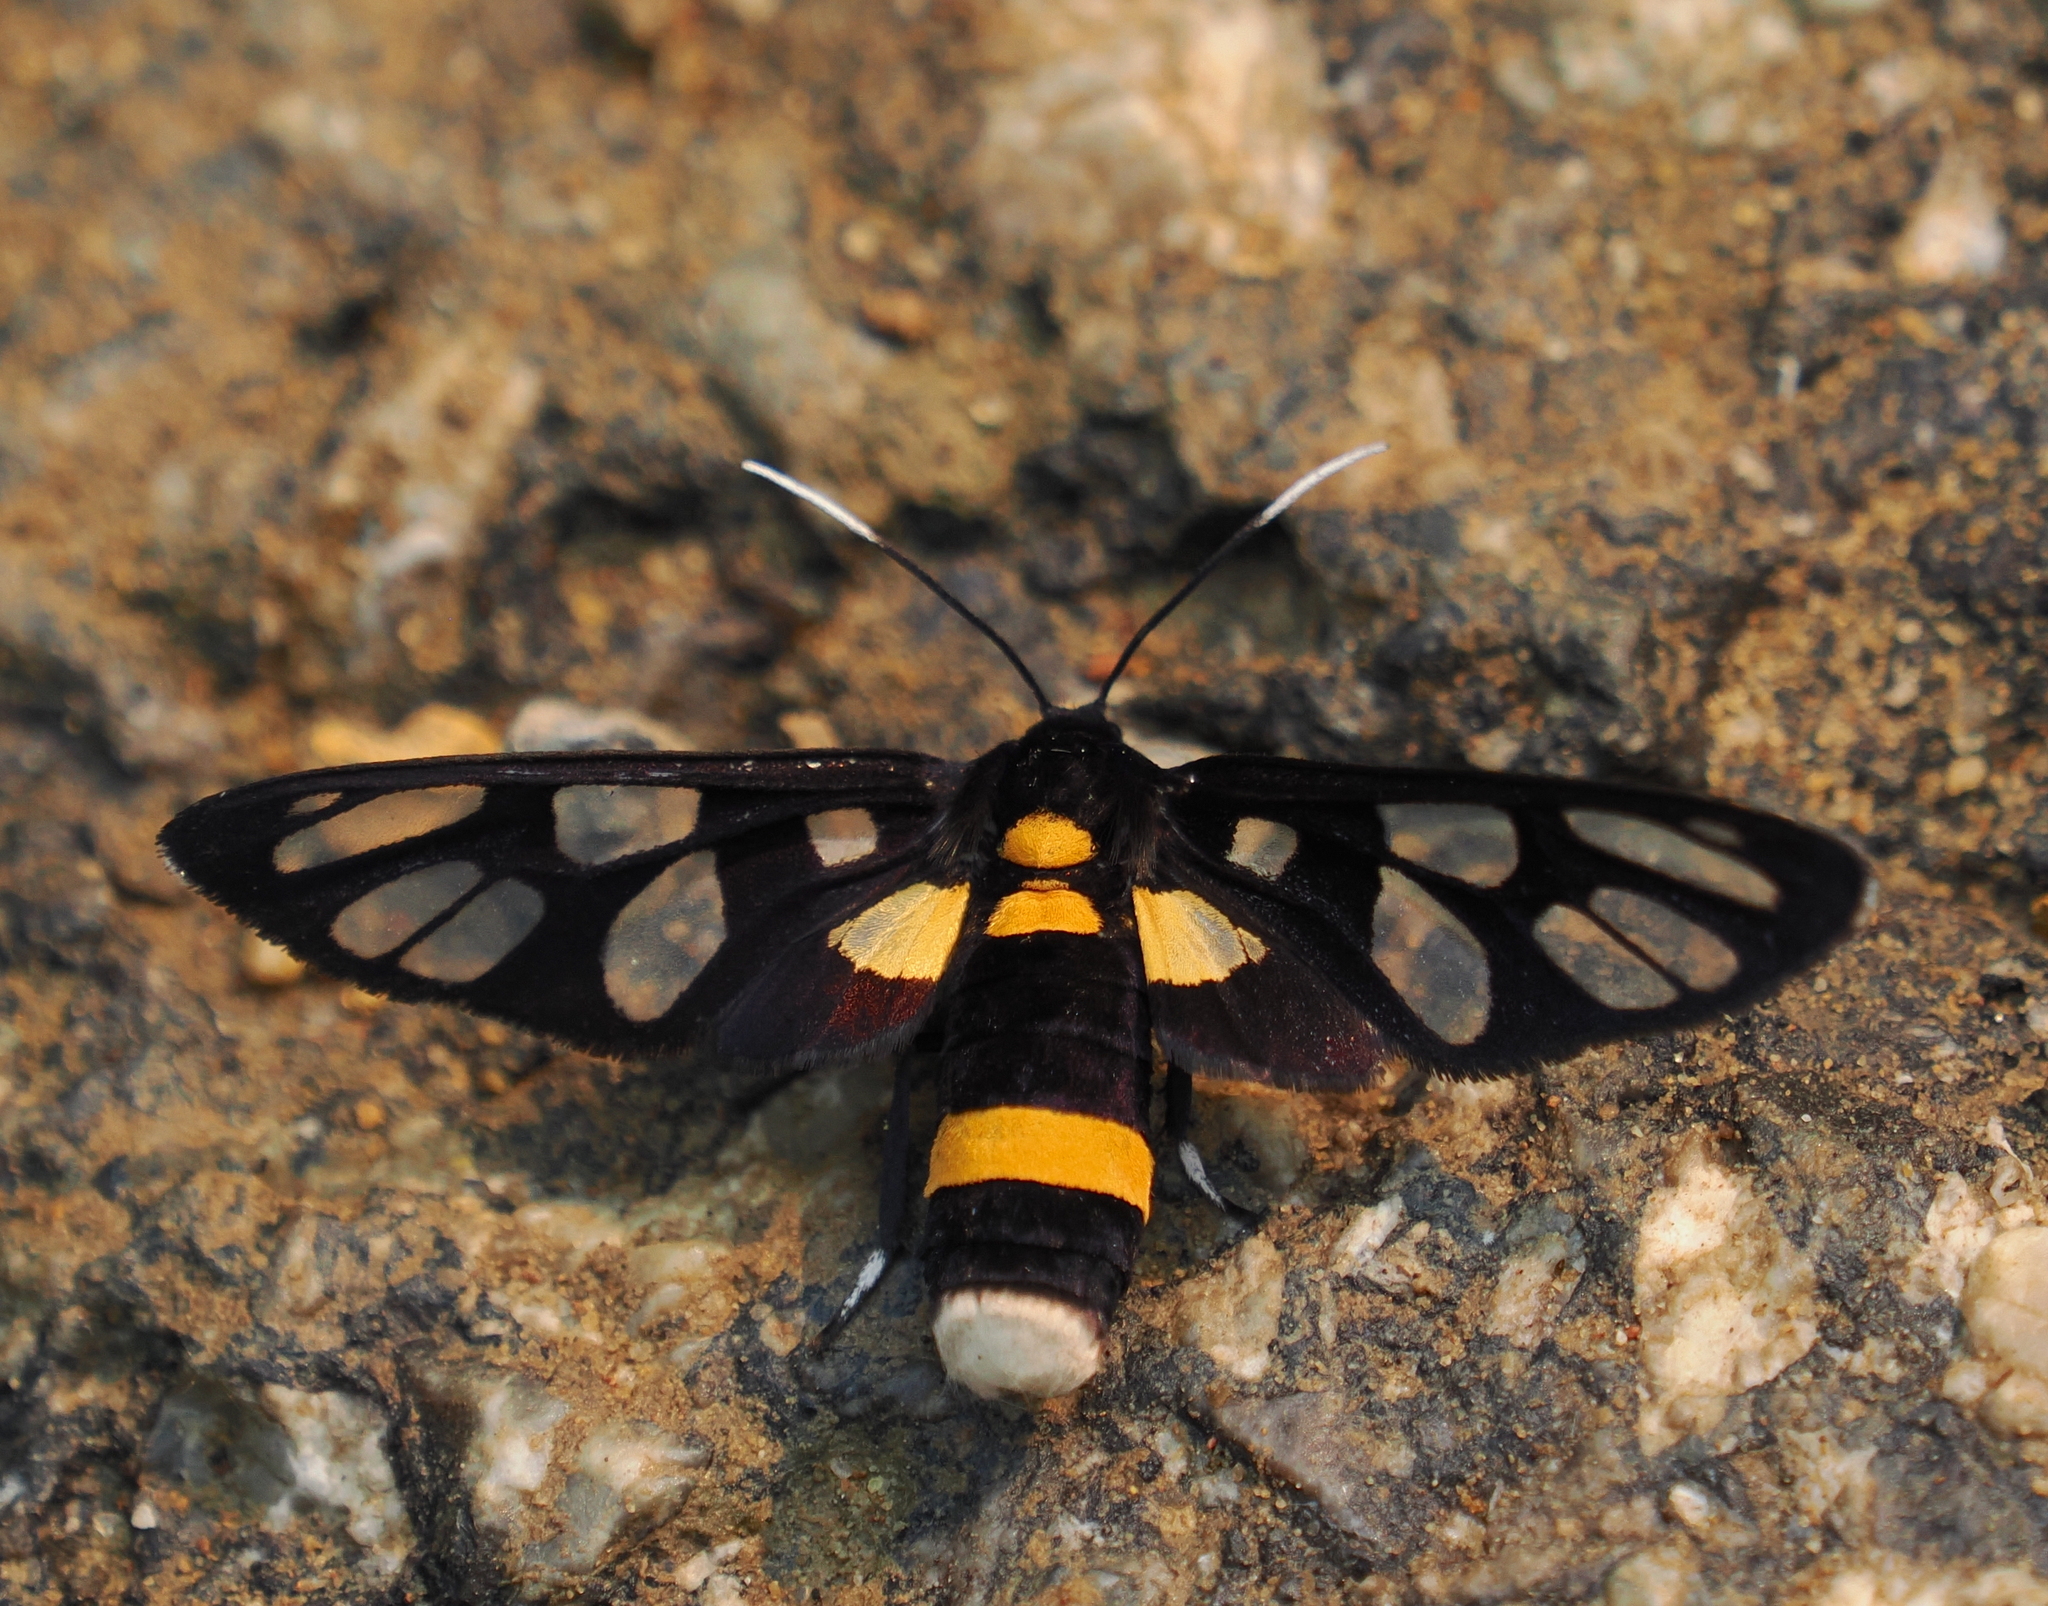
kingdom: Animalia
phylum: Arthropoda
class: Insecta
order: Lepidoptera
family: Erebidae
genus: Amata
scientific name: Amata sperbius
